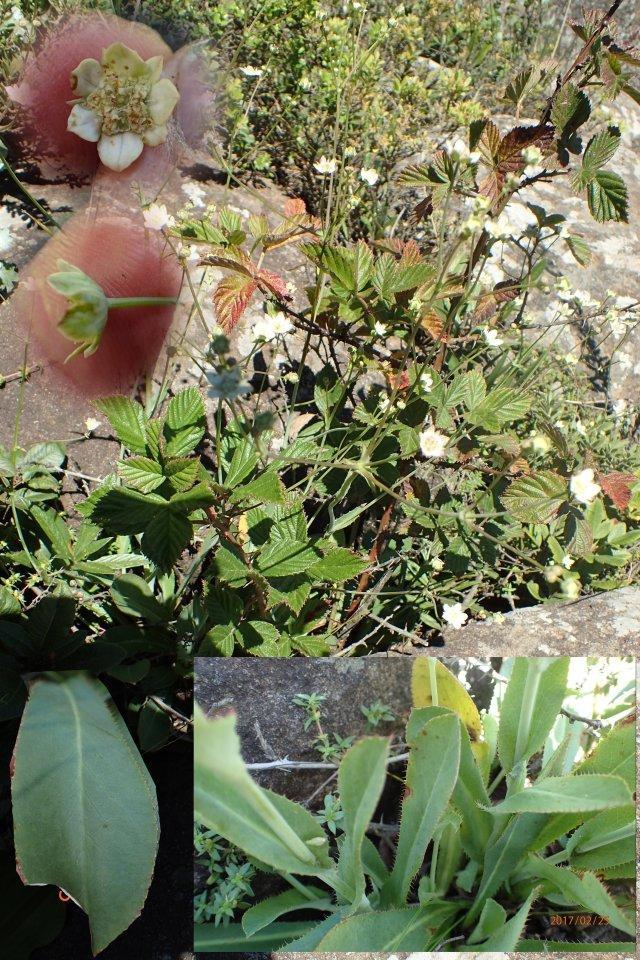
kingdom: Plantae
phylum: Tracheophyta
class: Magnoliopsida
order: Apiales
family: Apiaceae
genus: Alepidea
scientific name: Alepidea woodii
